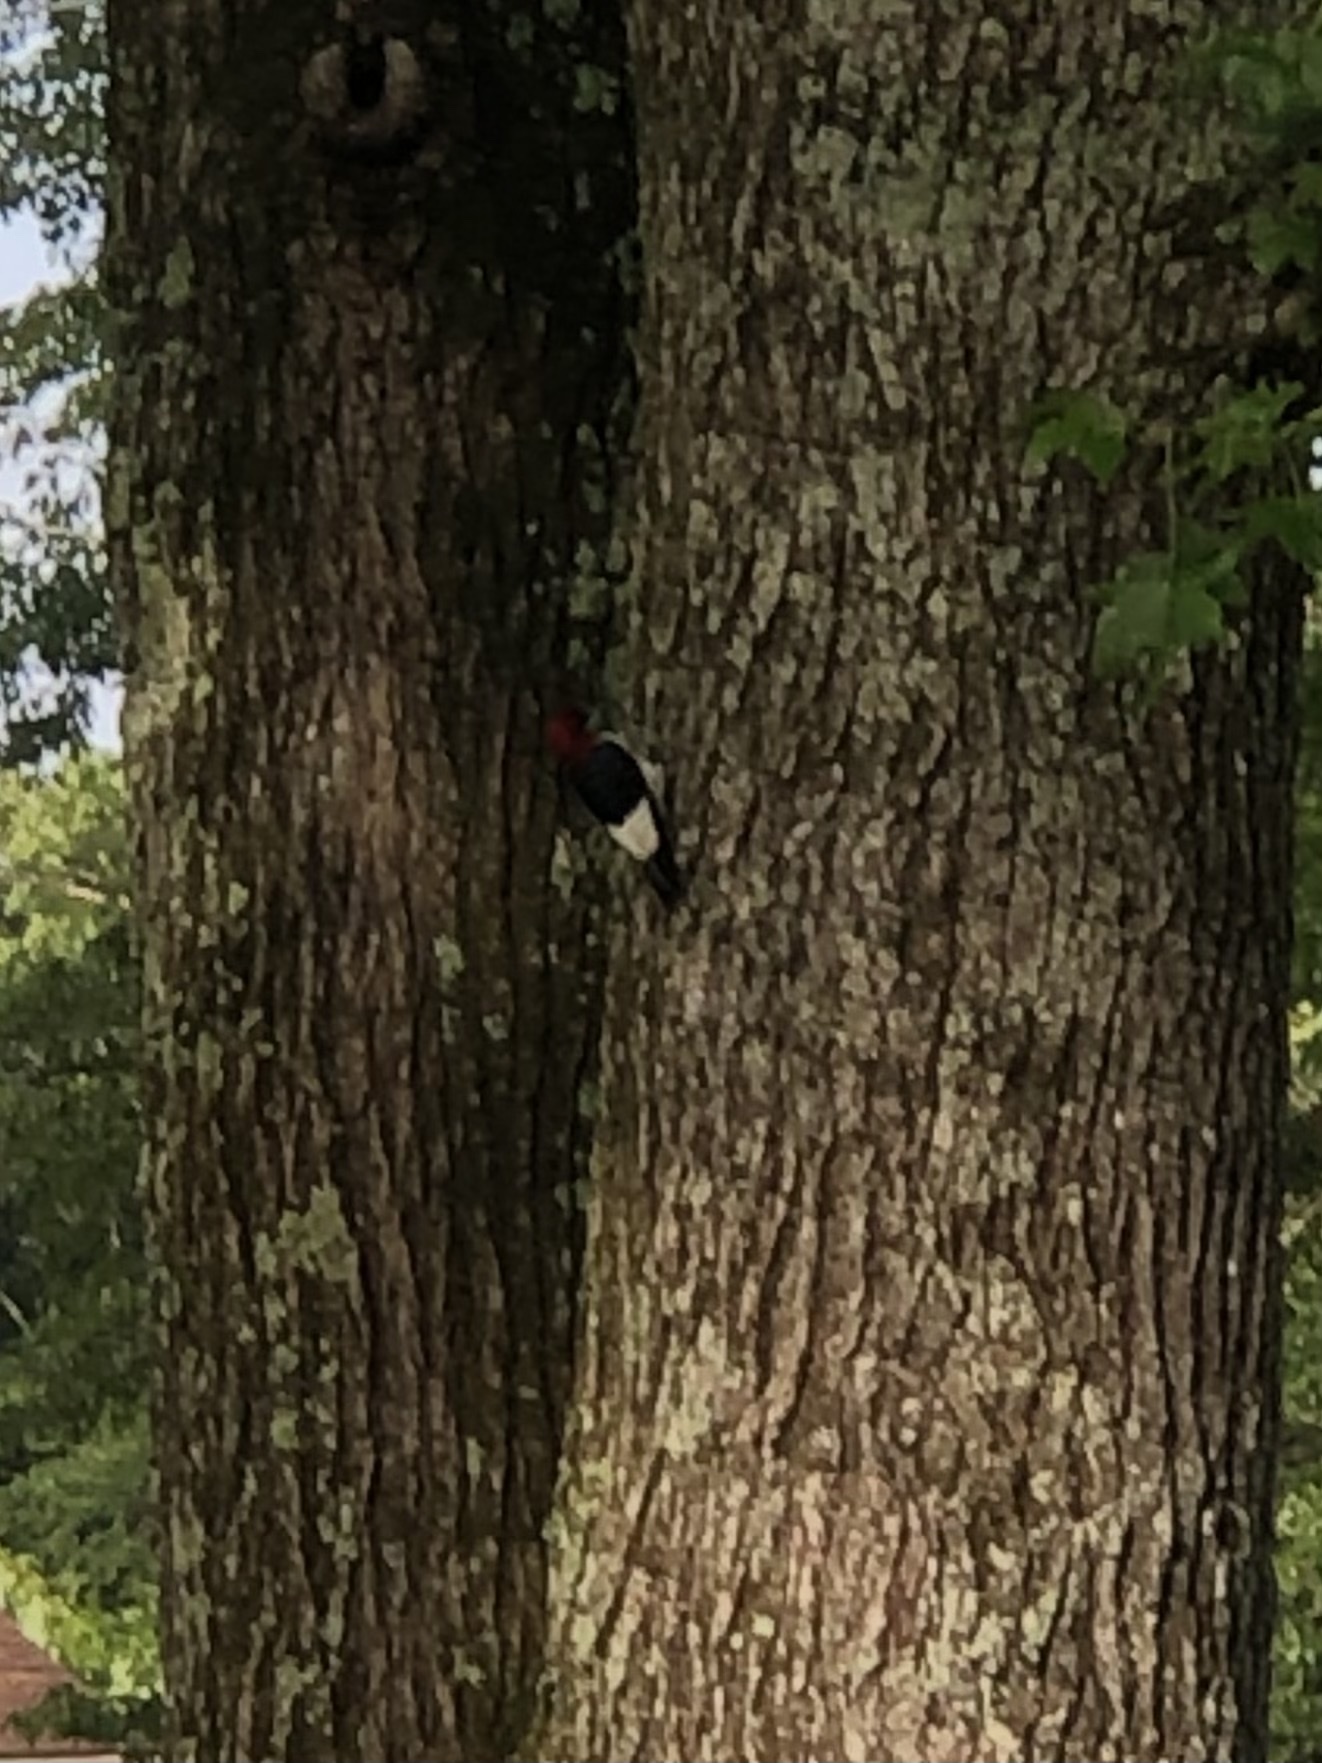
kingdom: Animalia
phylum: Chordata
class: Aves
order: Piciformes
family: Picidae
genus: Melanerpes
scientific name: Melanerpes erythrocephalus
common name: Red-headed woodpecker
